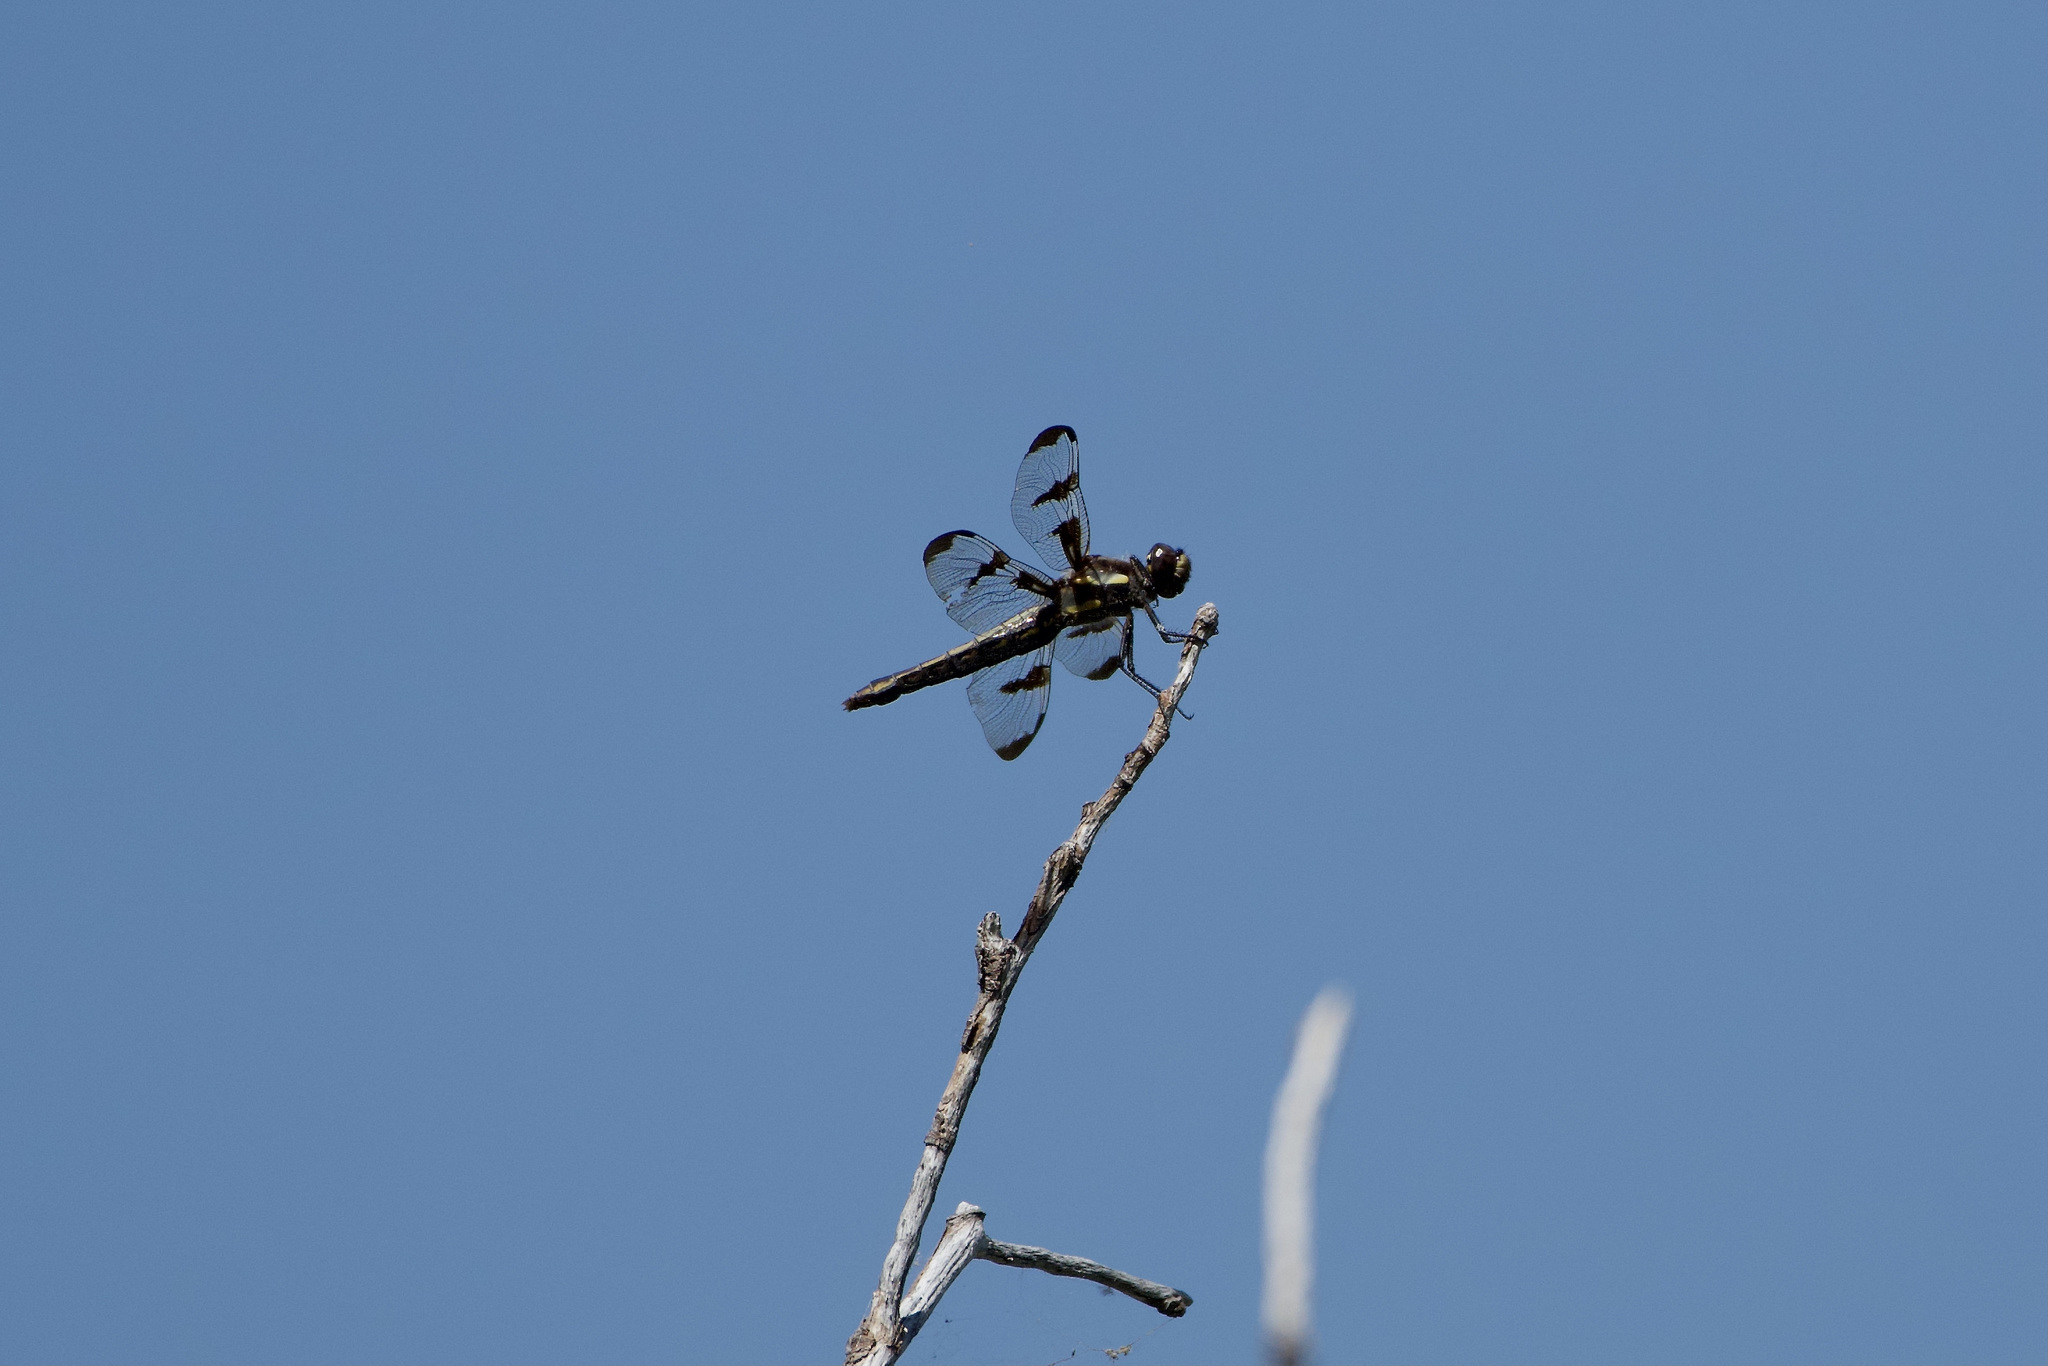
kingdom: Animalia
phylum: Arthropoda
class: Insecta
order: Odonata
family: Libellulidae
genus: Libellula
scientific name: Libellula pulchella
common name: Twelve-spotted skimmer
